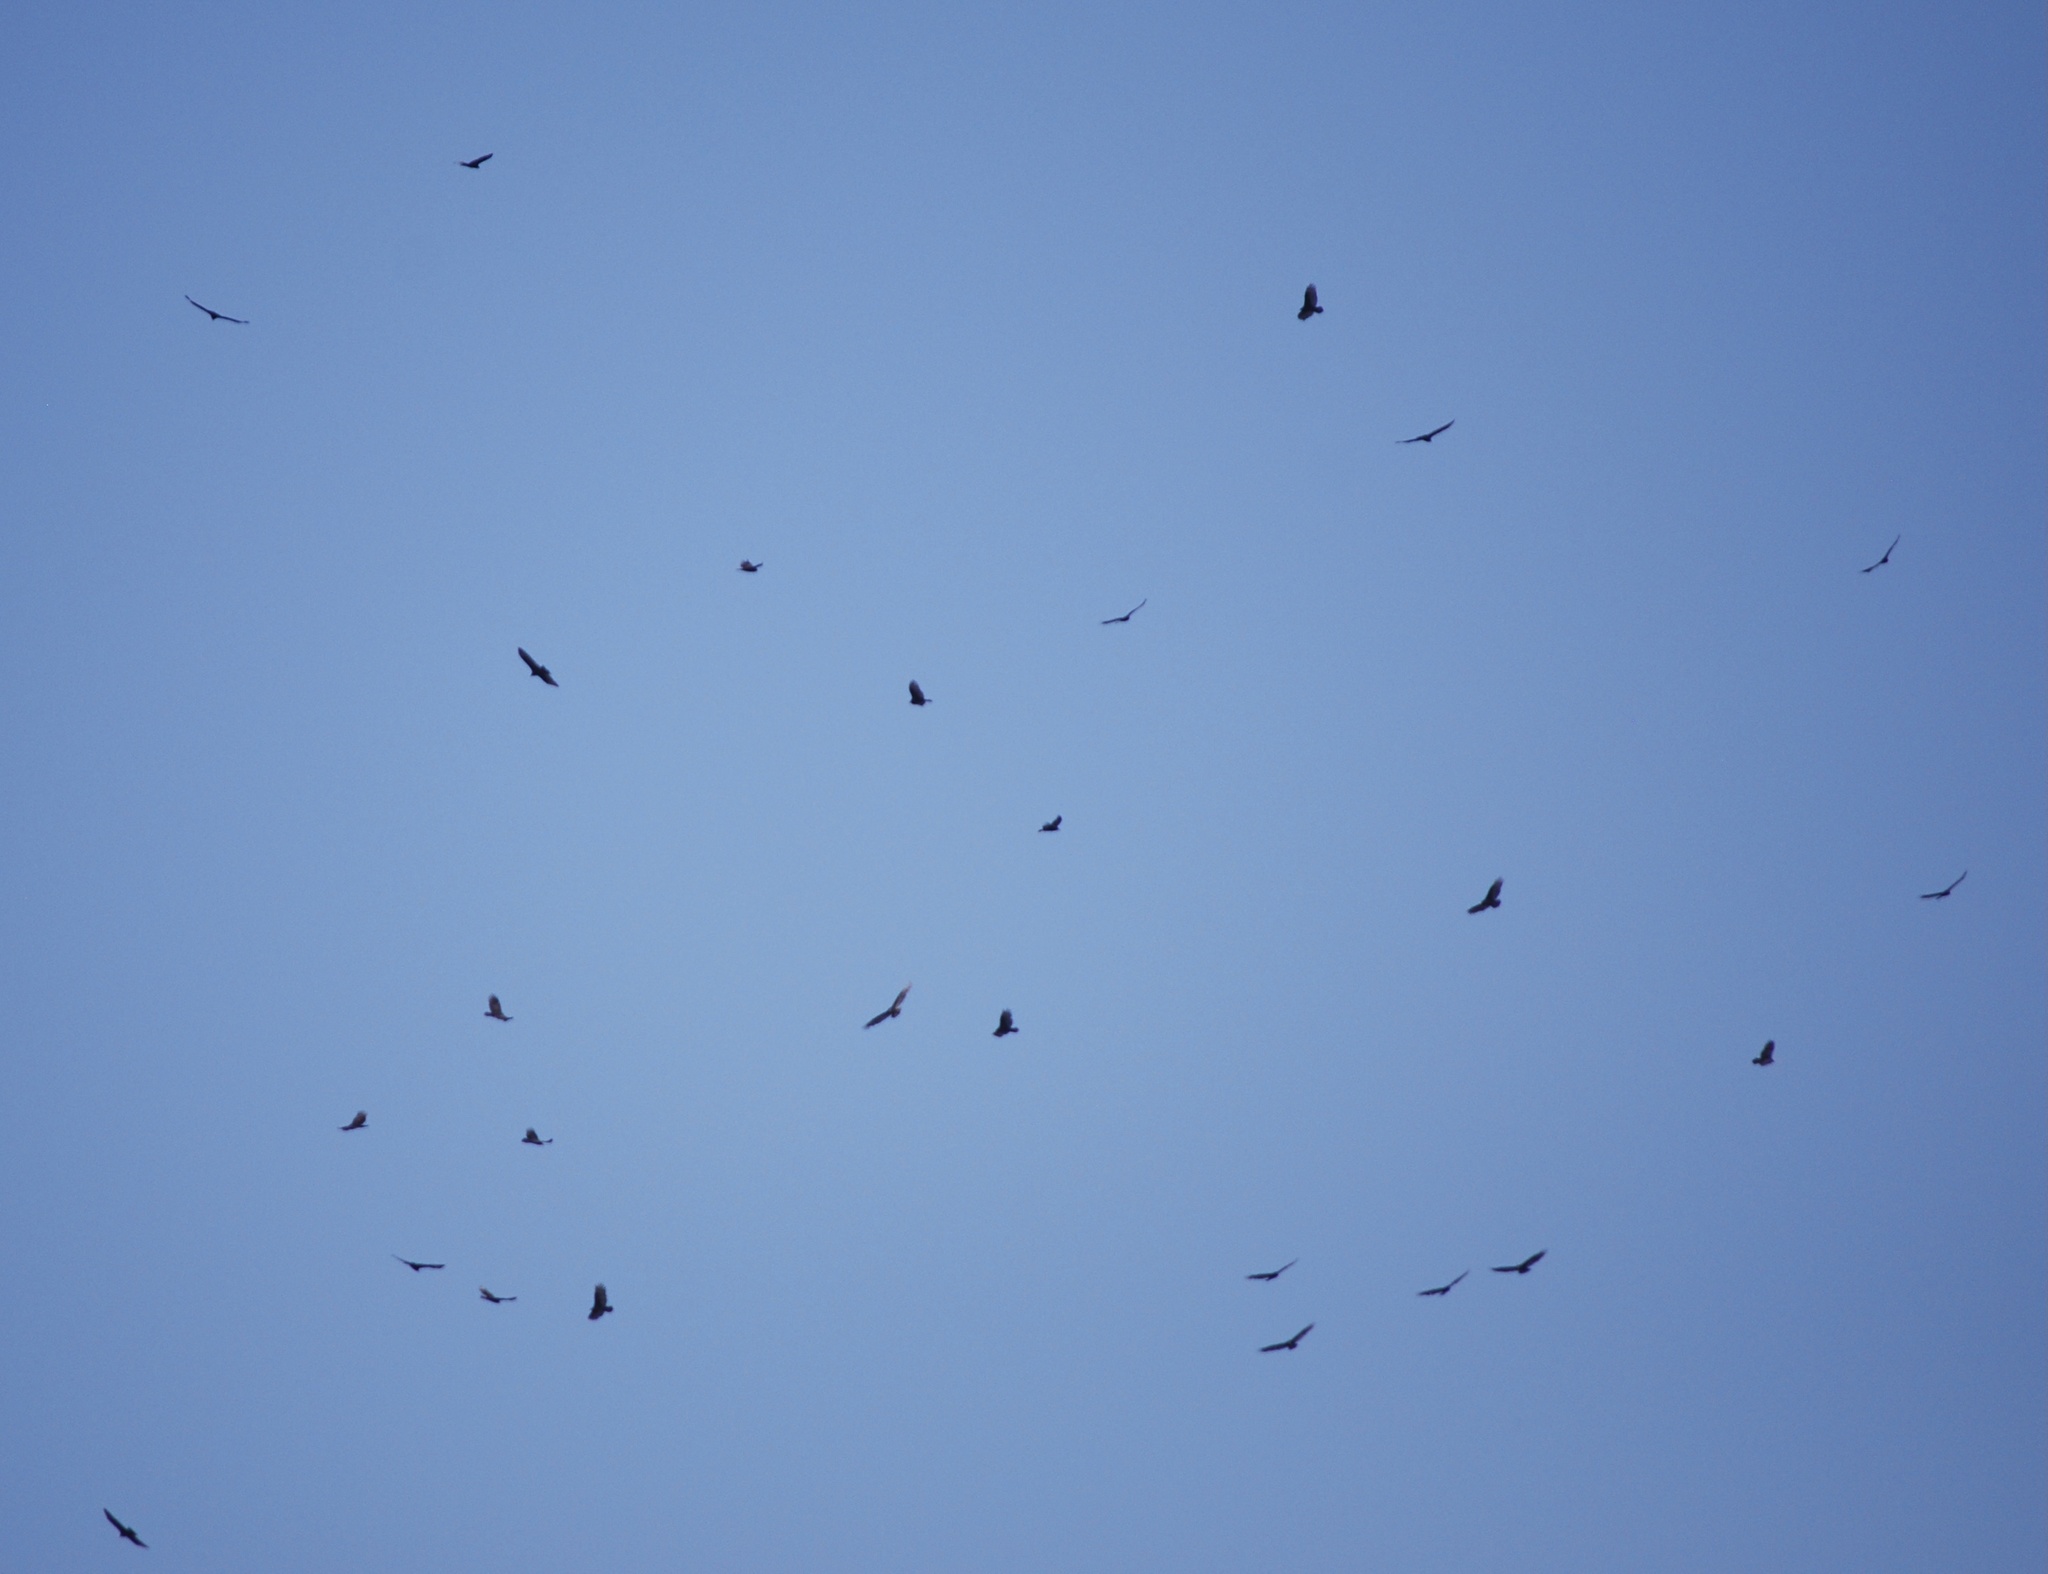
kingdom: Animalia
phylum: Chordata
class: Aves
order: Accipitriformes
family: Cathartidae
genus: Cathartes
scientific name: Cathartes aura
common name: Turkey vulture
